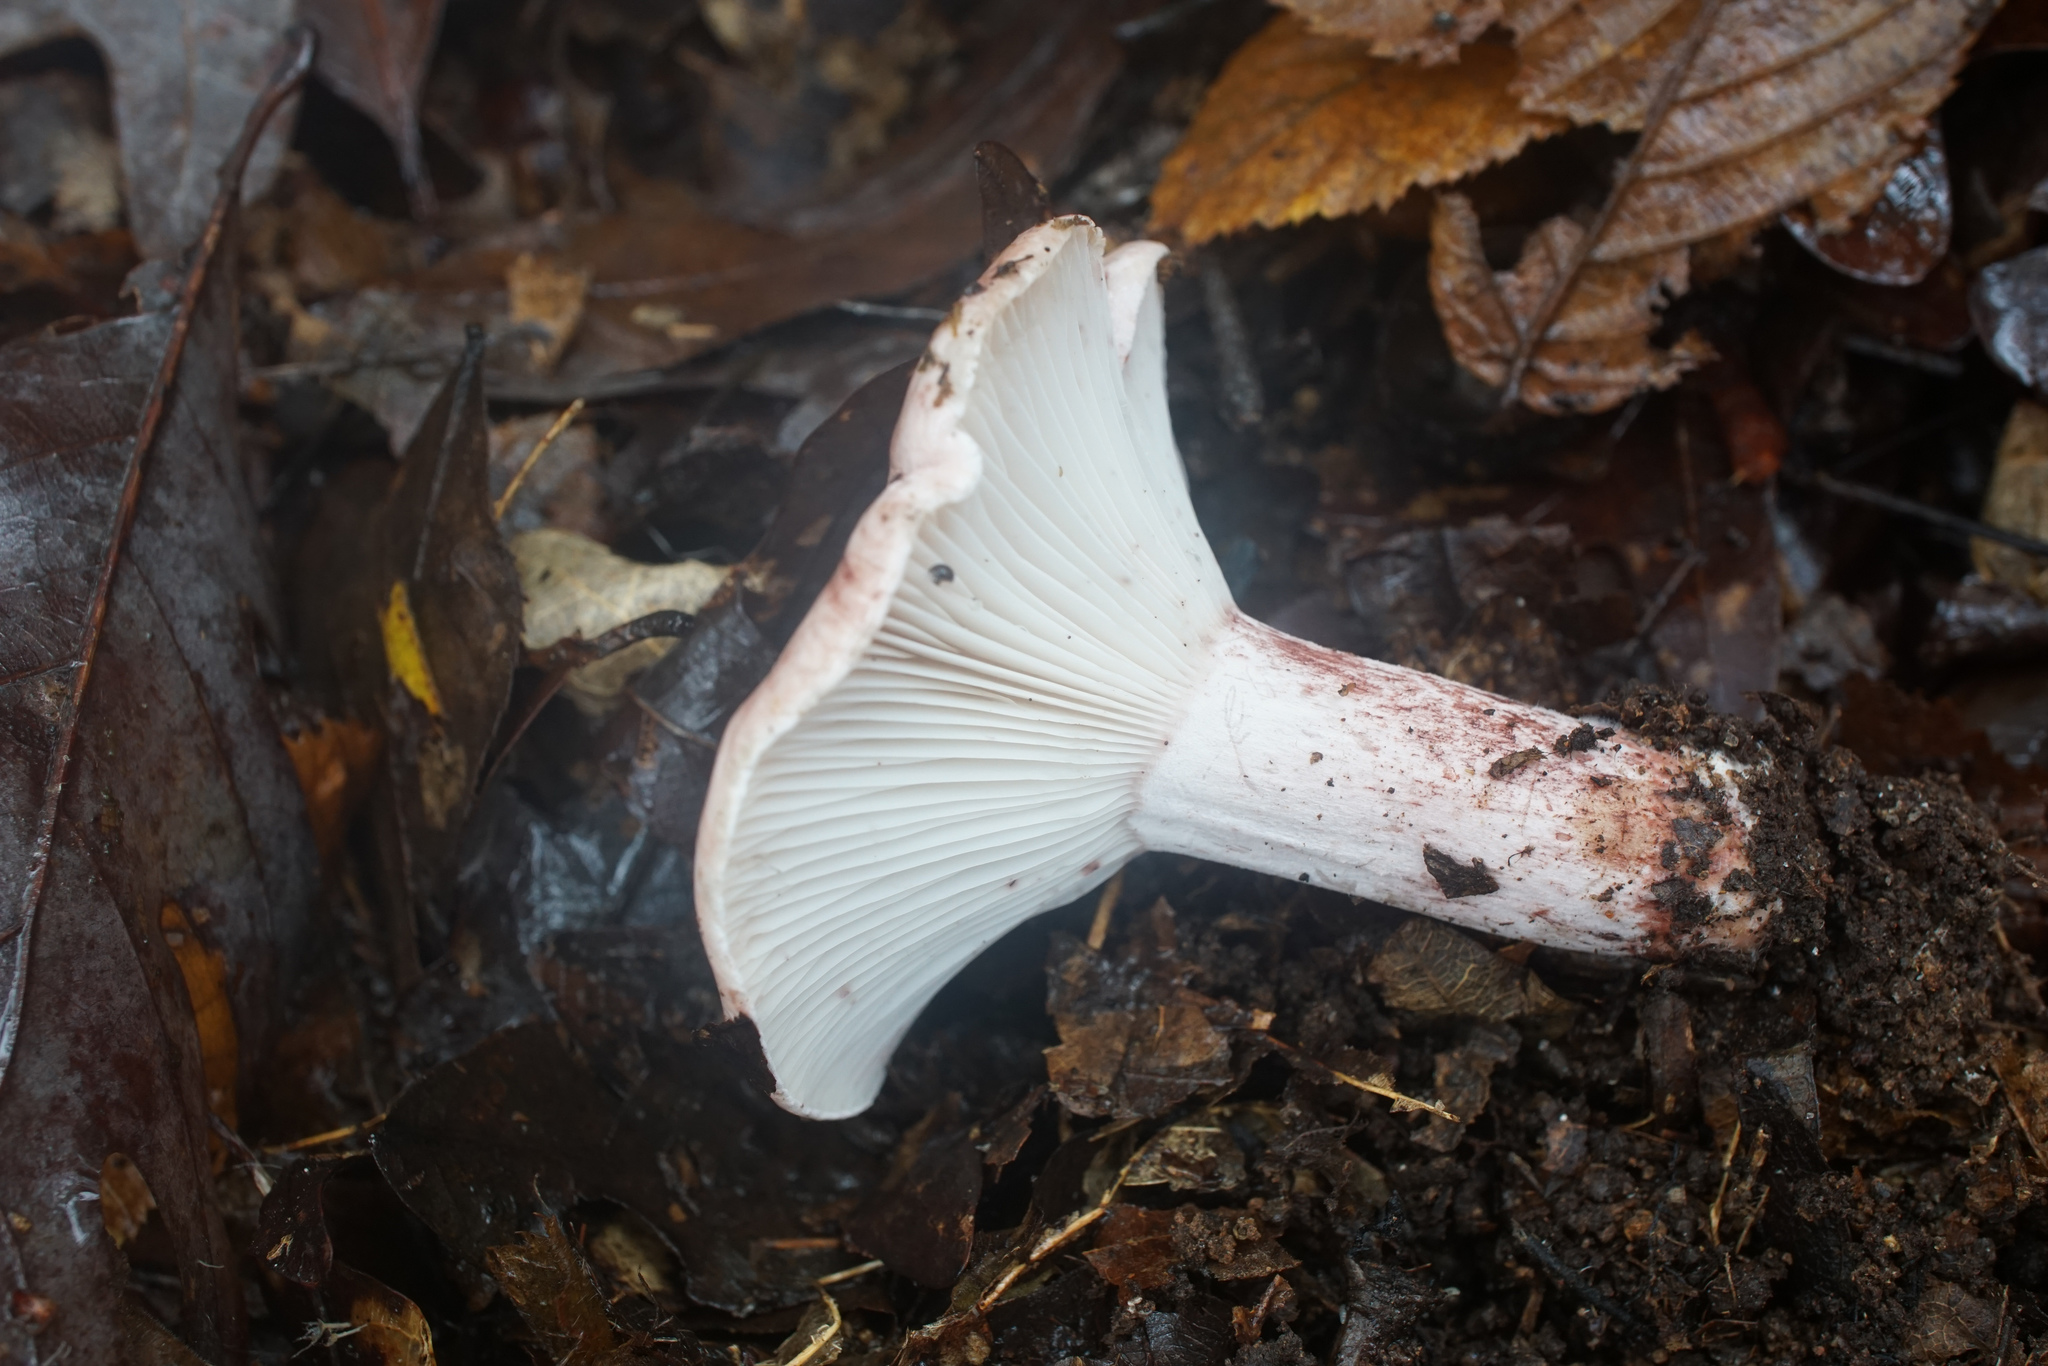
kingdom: Fungi
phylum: Basidiomycota
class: Agaricomycetes
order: Agaricales
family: Hygrophoraceae
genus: Hygrophorus
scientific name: Hygrophorus russula
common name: Pinkmottle woodwax
